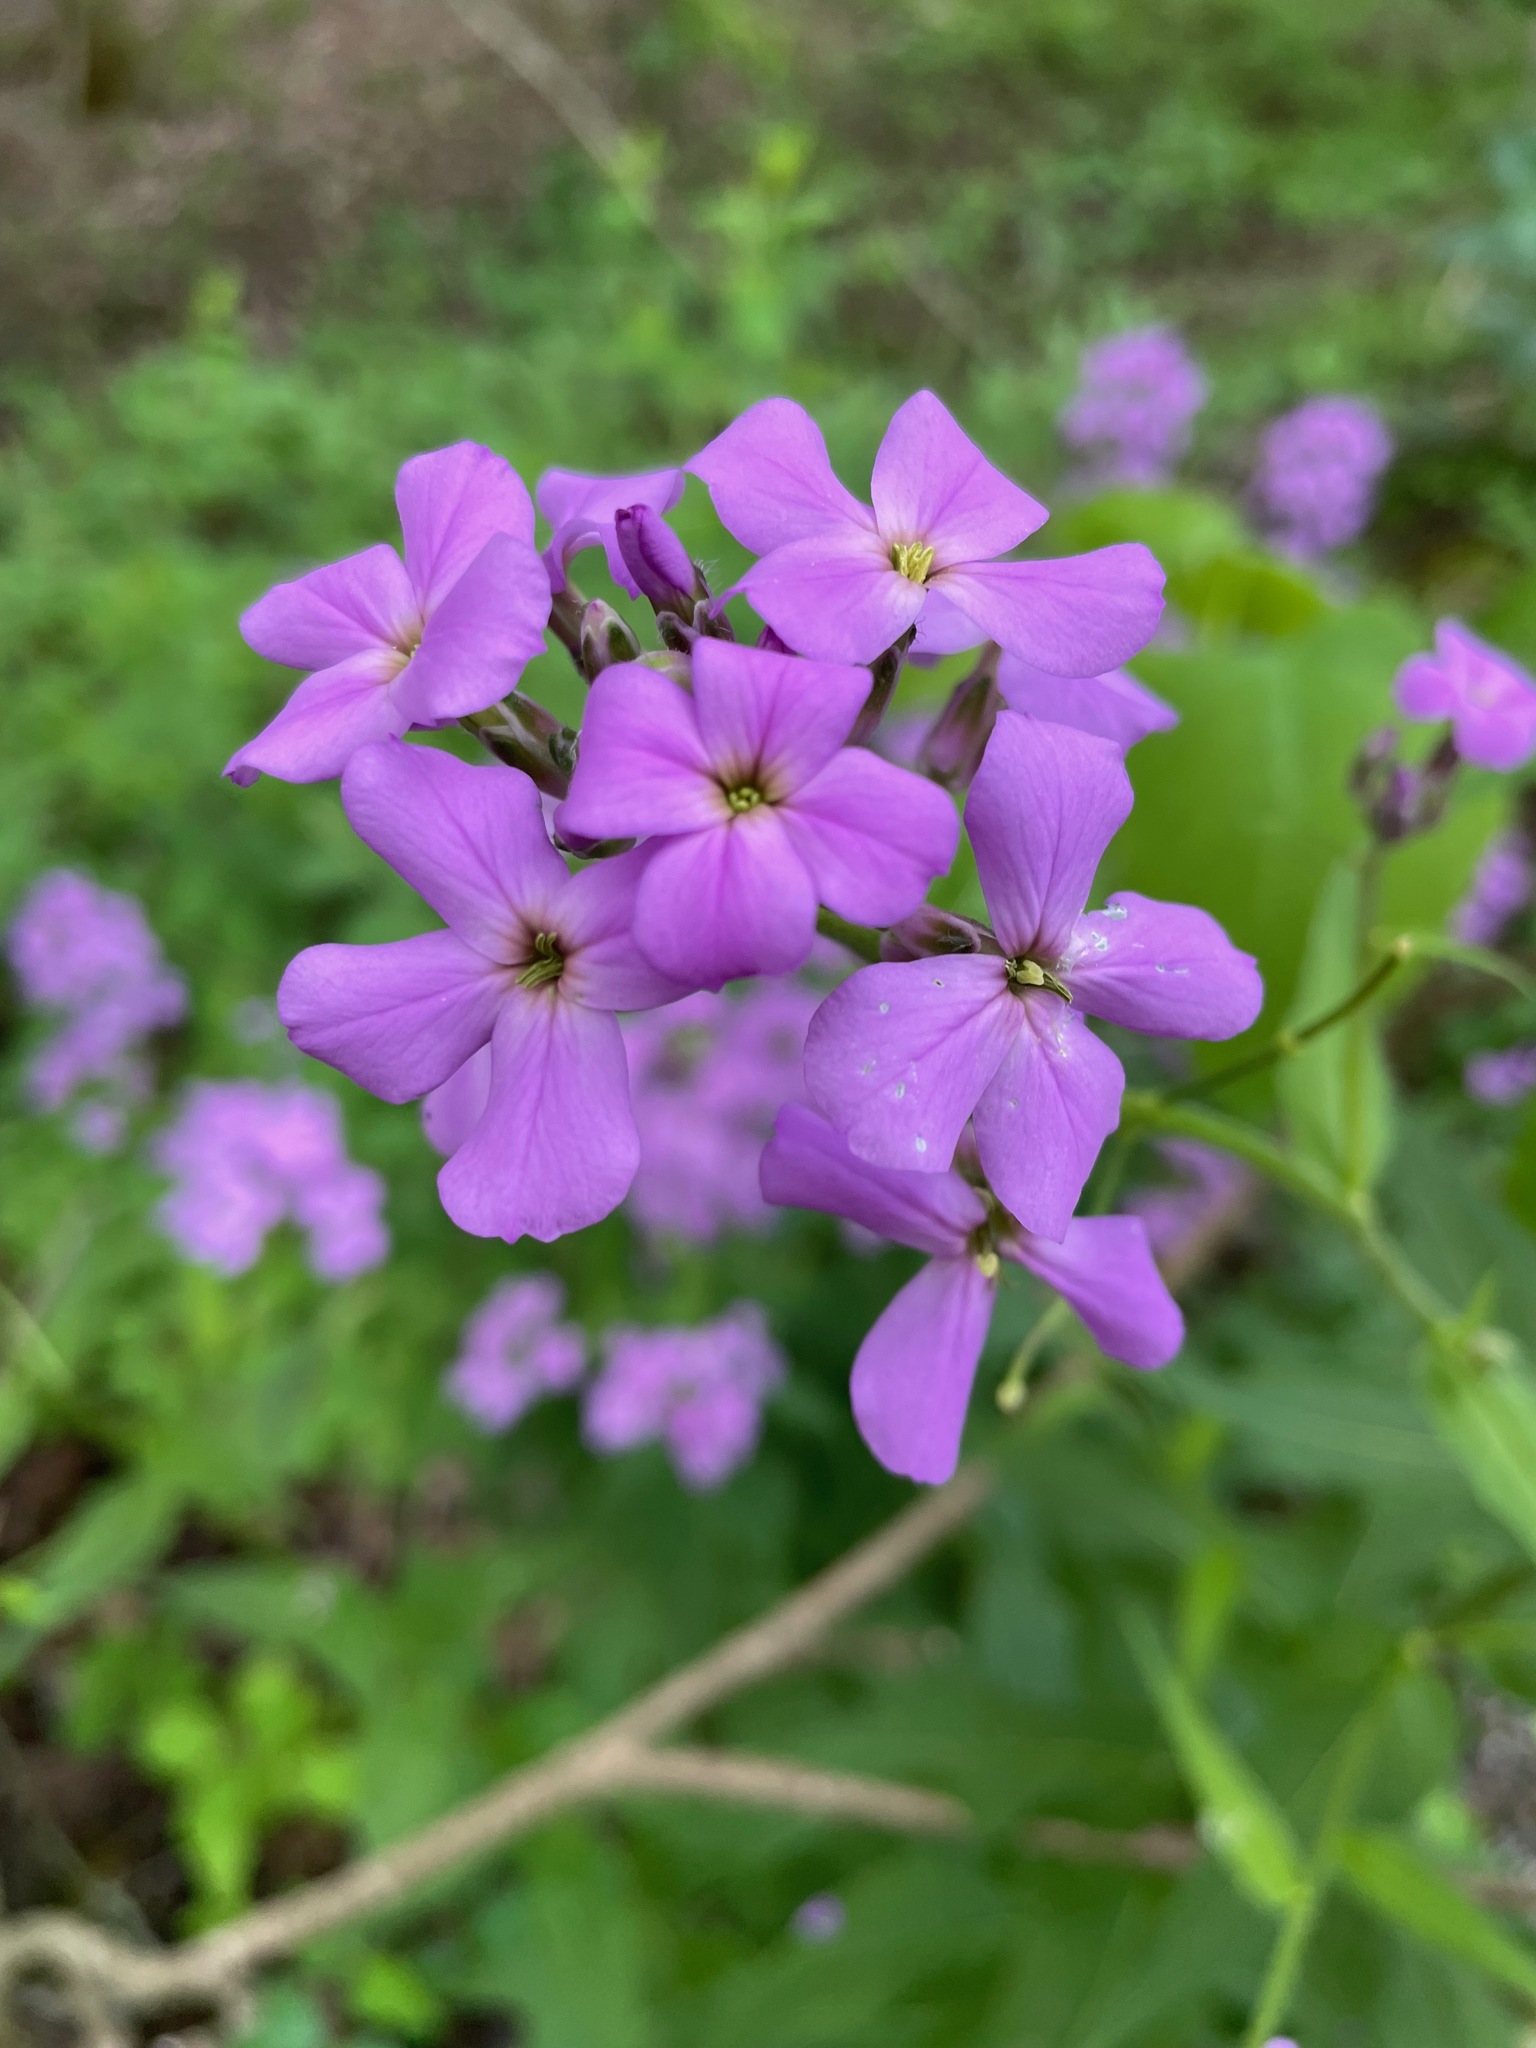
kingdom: Plantae
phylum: Tracheophyta
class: Magnoliopsida
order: Brassicales
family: Brassicaceae
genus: Hesperis
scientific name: Hesperis matronalis
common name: Dame's-violet
